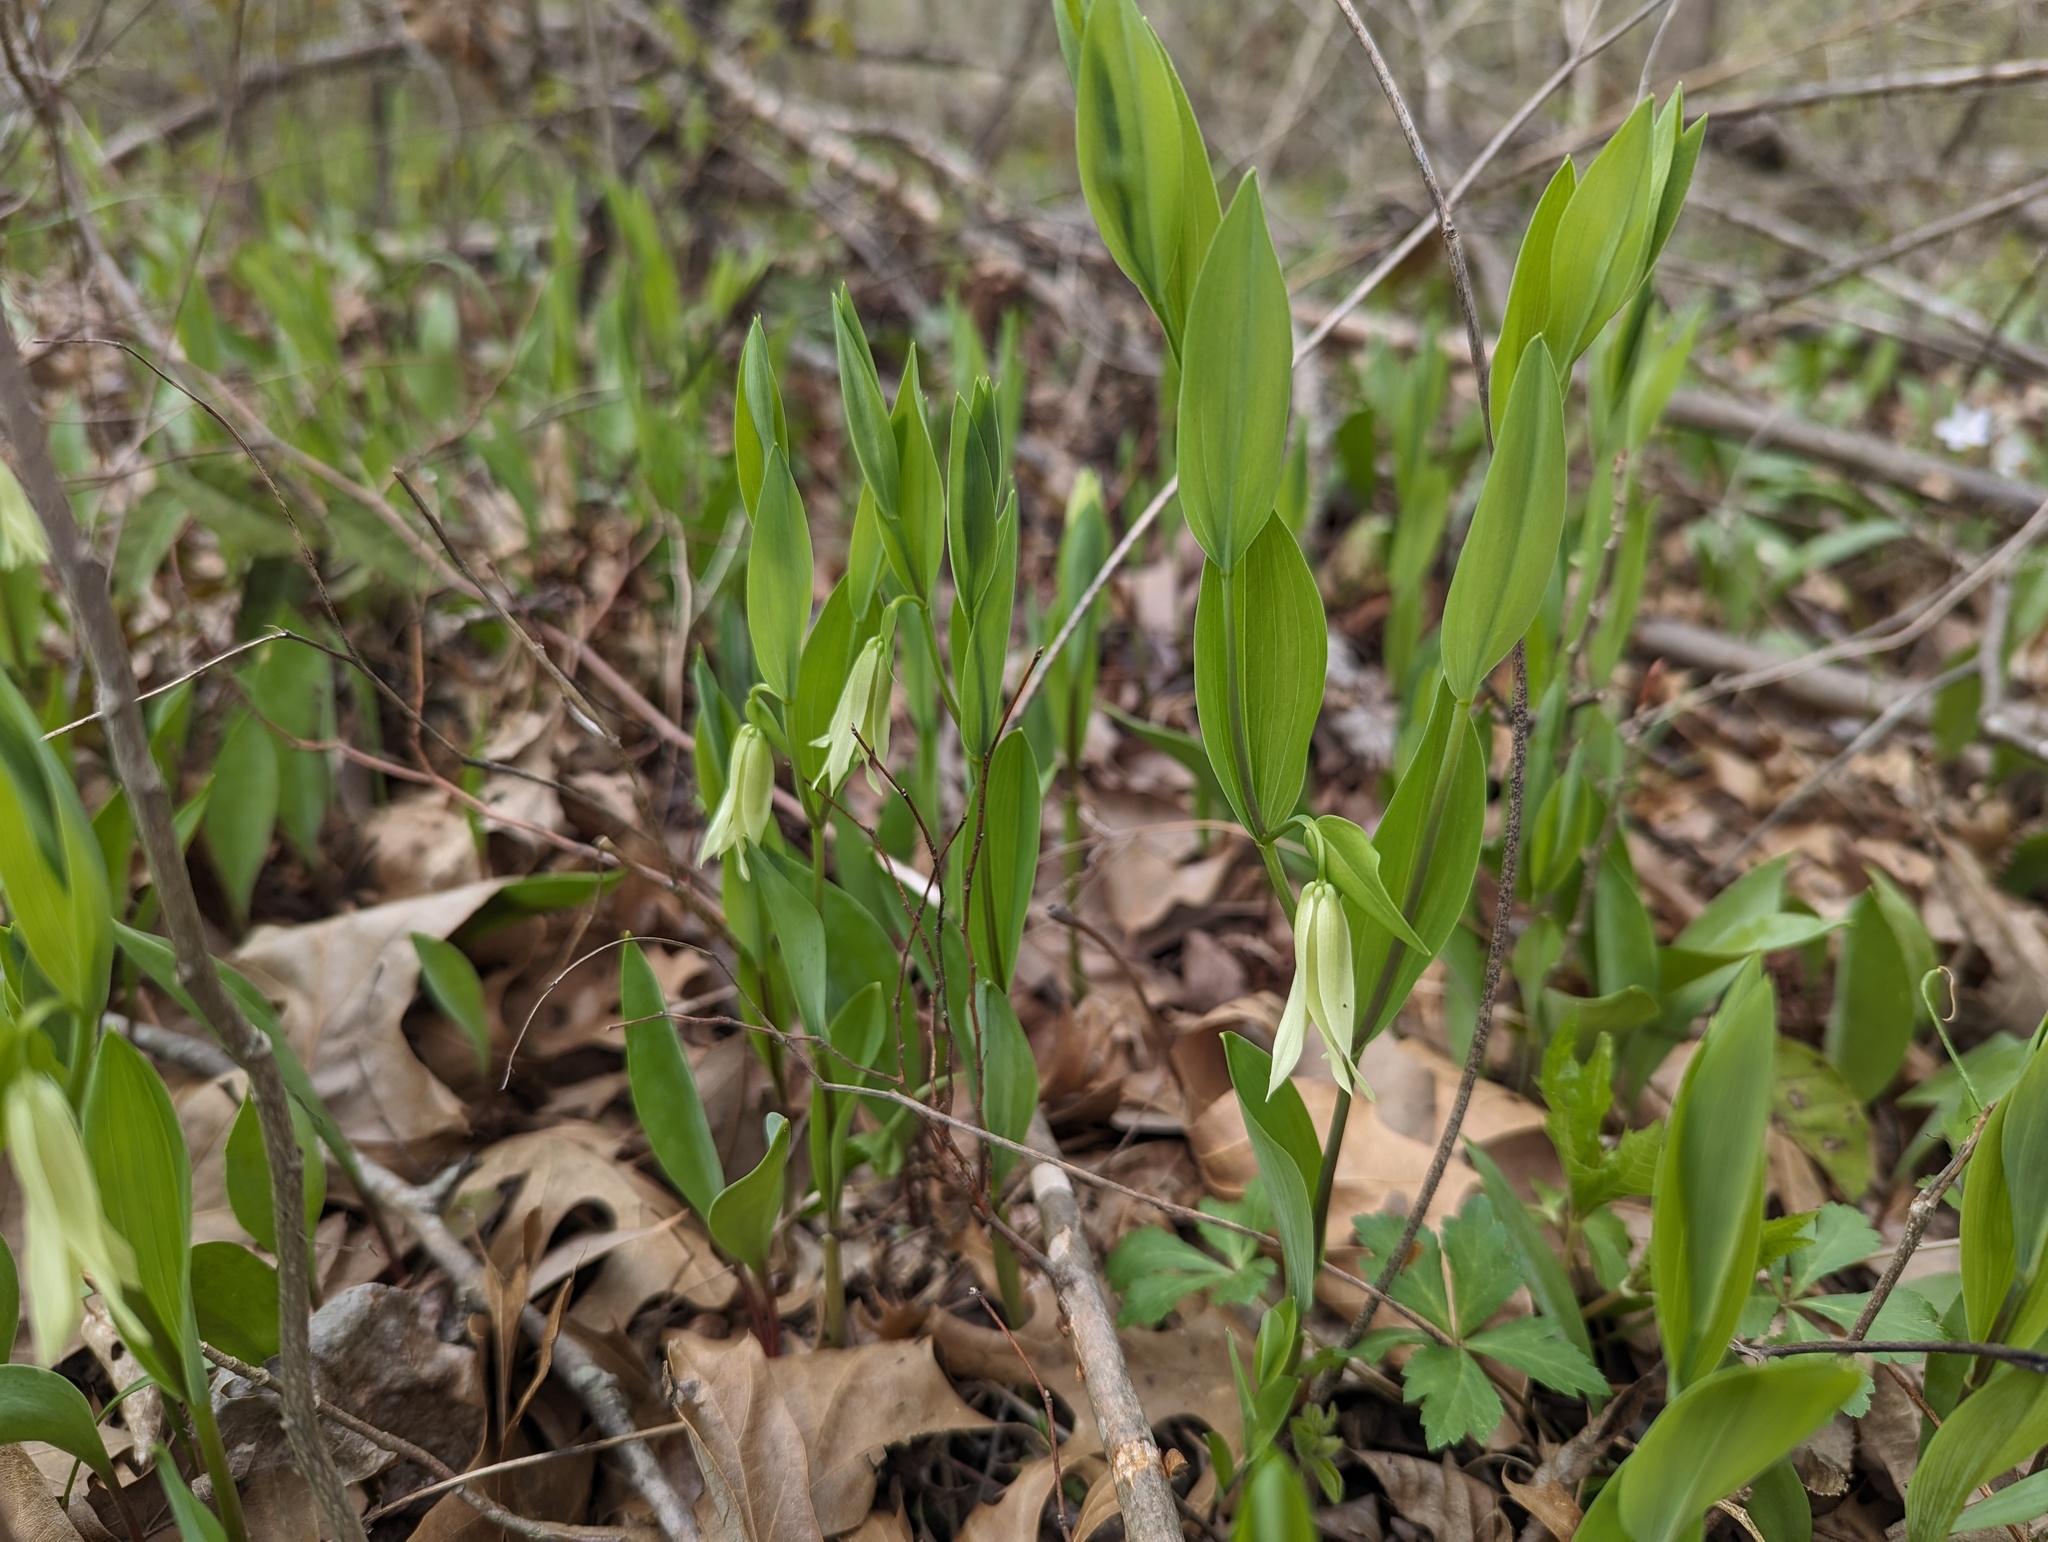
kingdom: Plantae
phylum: Tracheophyta
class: Liliopsida
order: Liliales
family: Colchicaceae
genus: Uvularia
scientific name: Uvularia floridana
